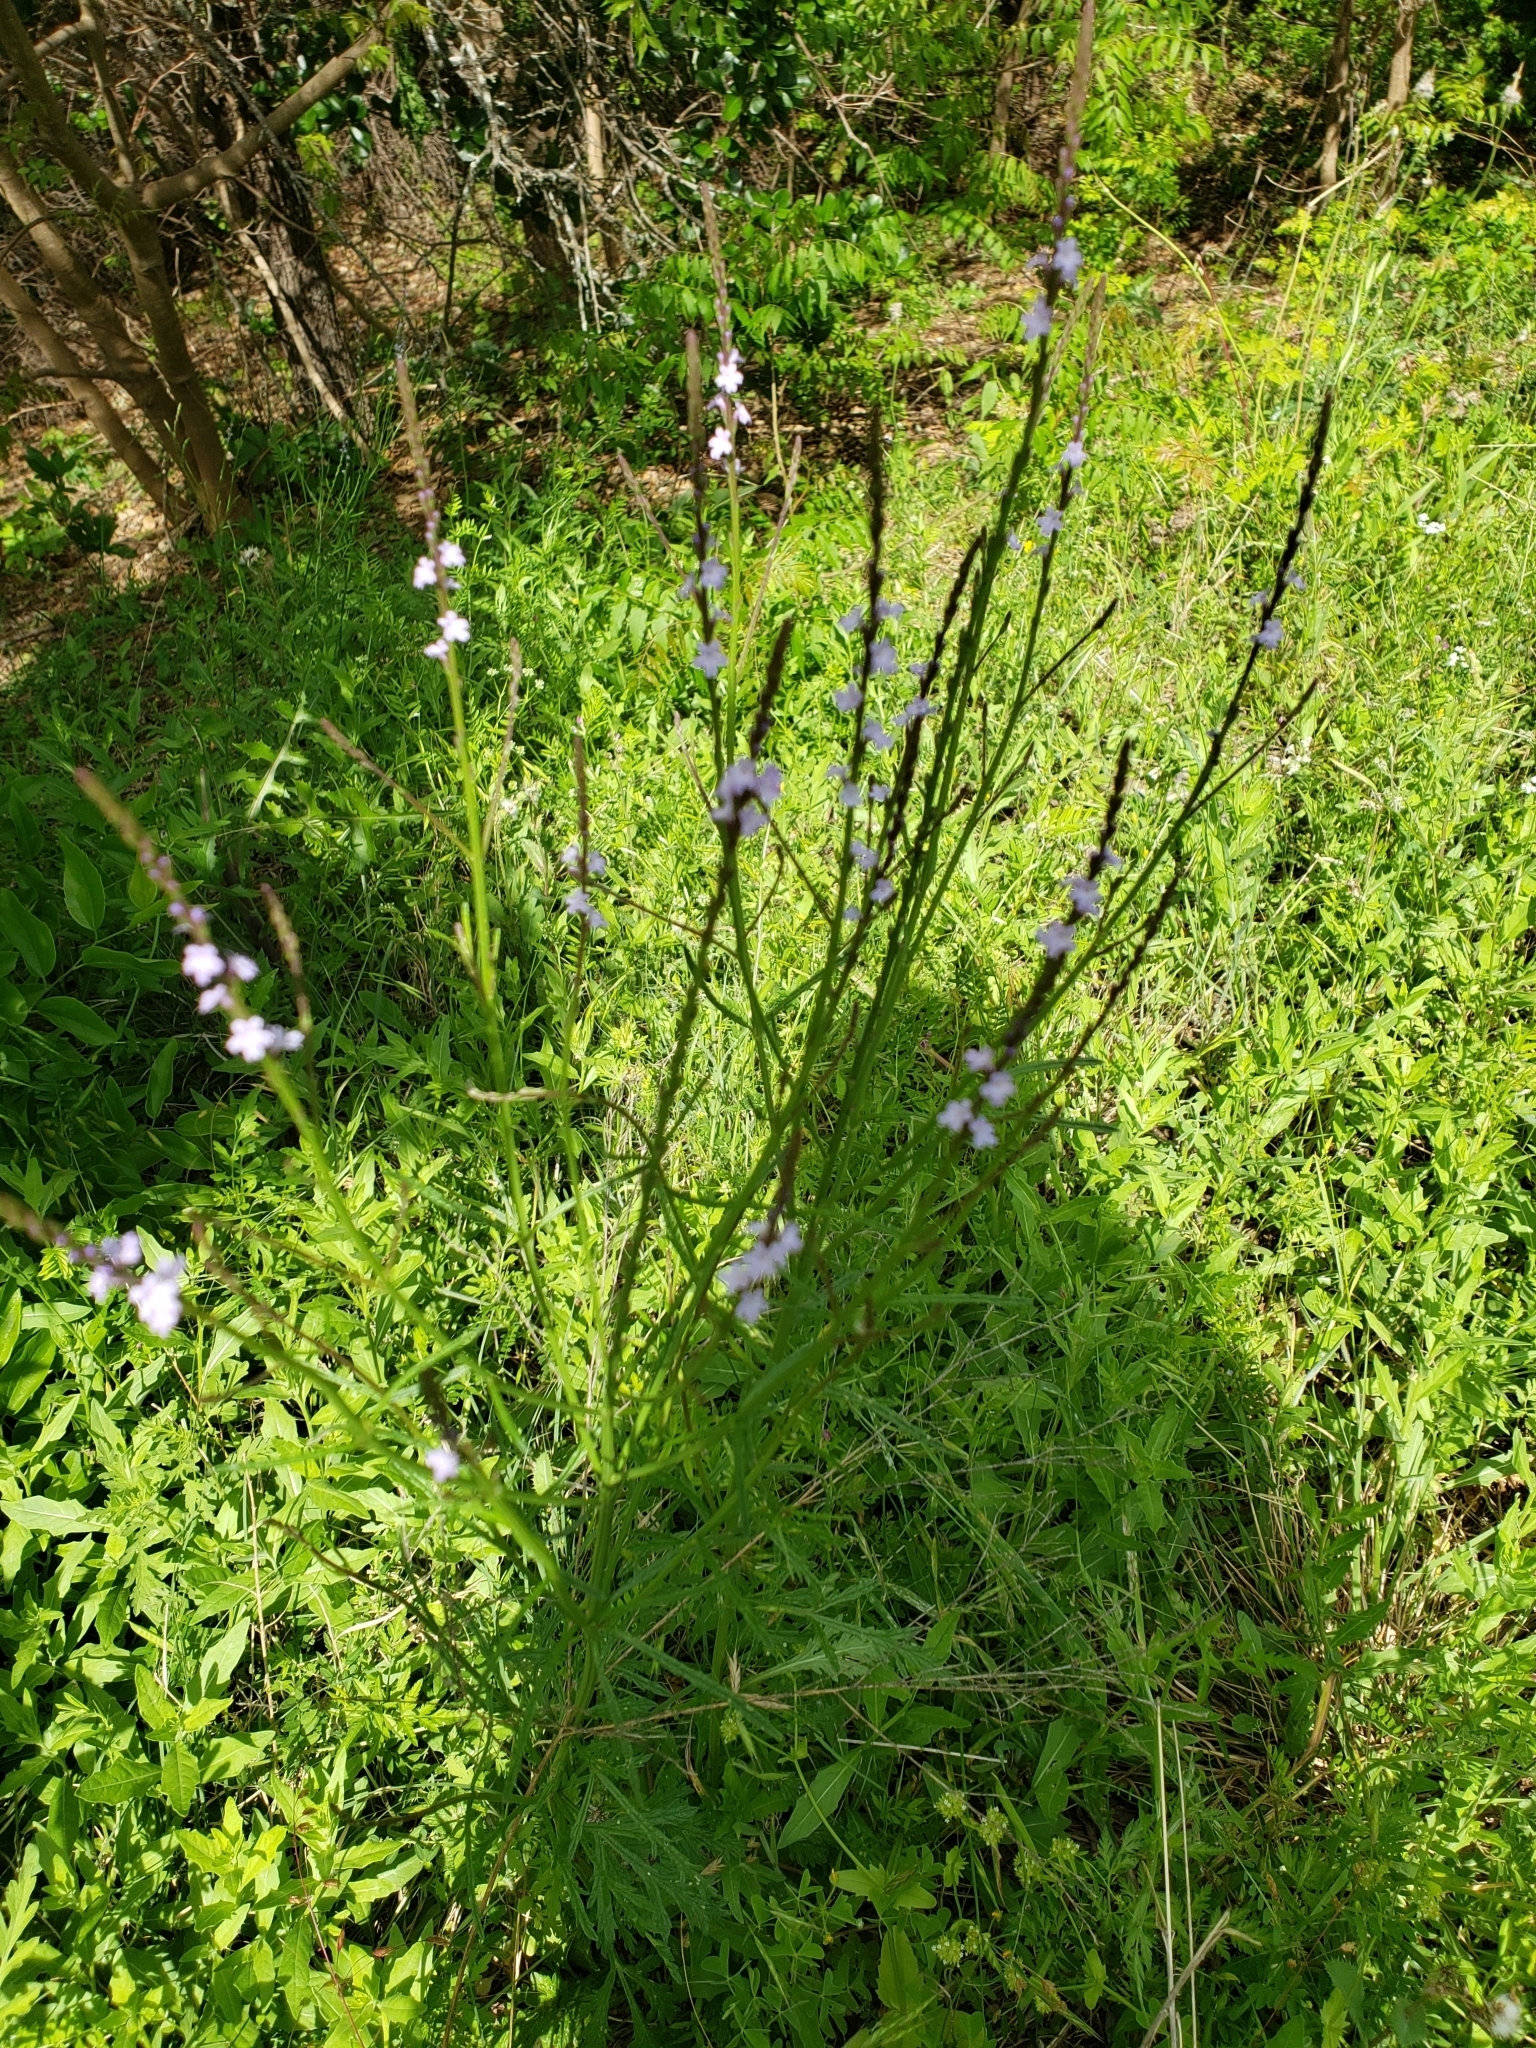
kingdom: Plantae
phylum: Tracheophyta
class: Magnoliopsida
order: Lamiales
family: Verbenaceae
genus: Verbena
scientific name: Verbena halei
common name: Texas vervain
